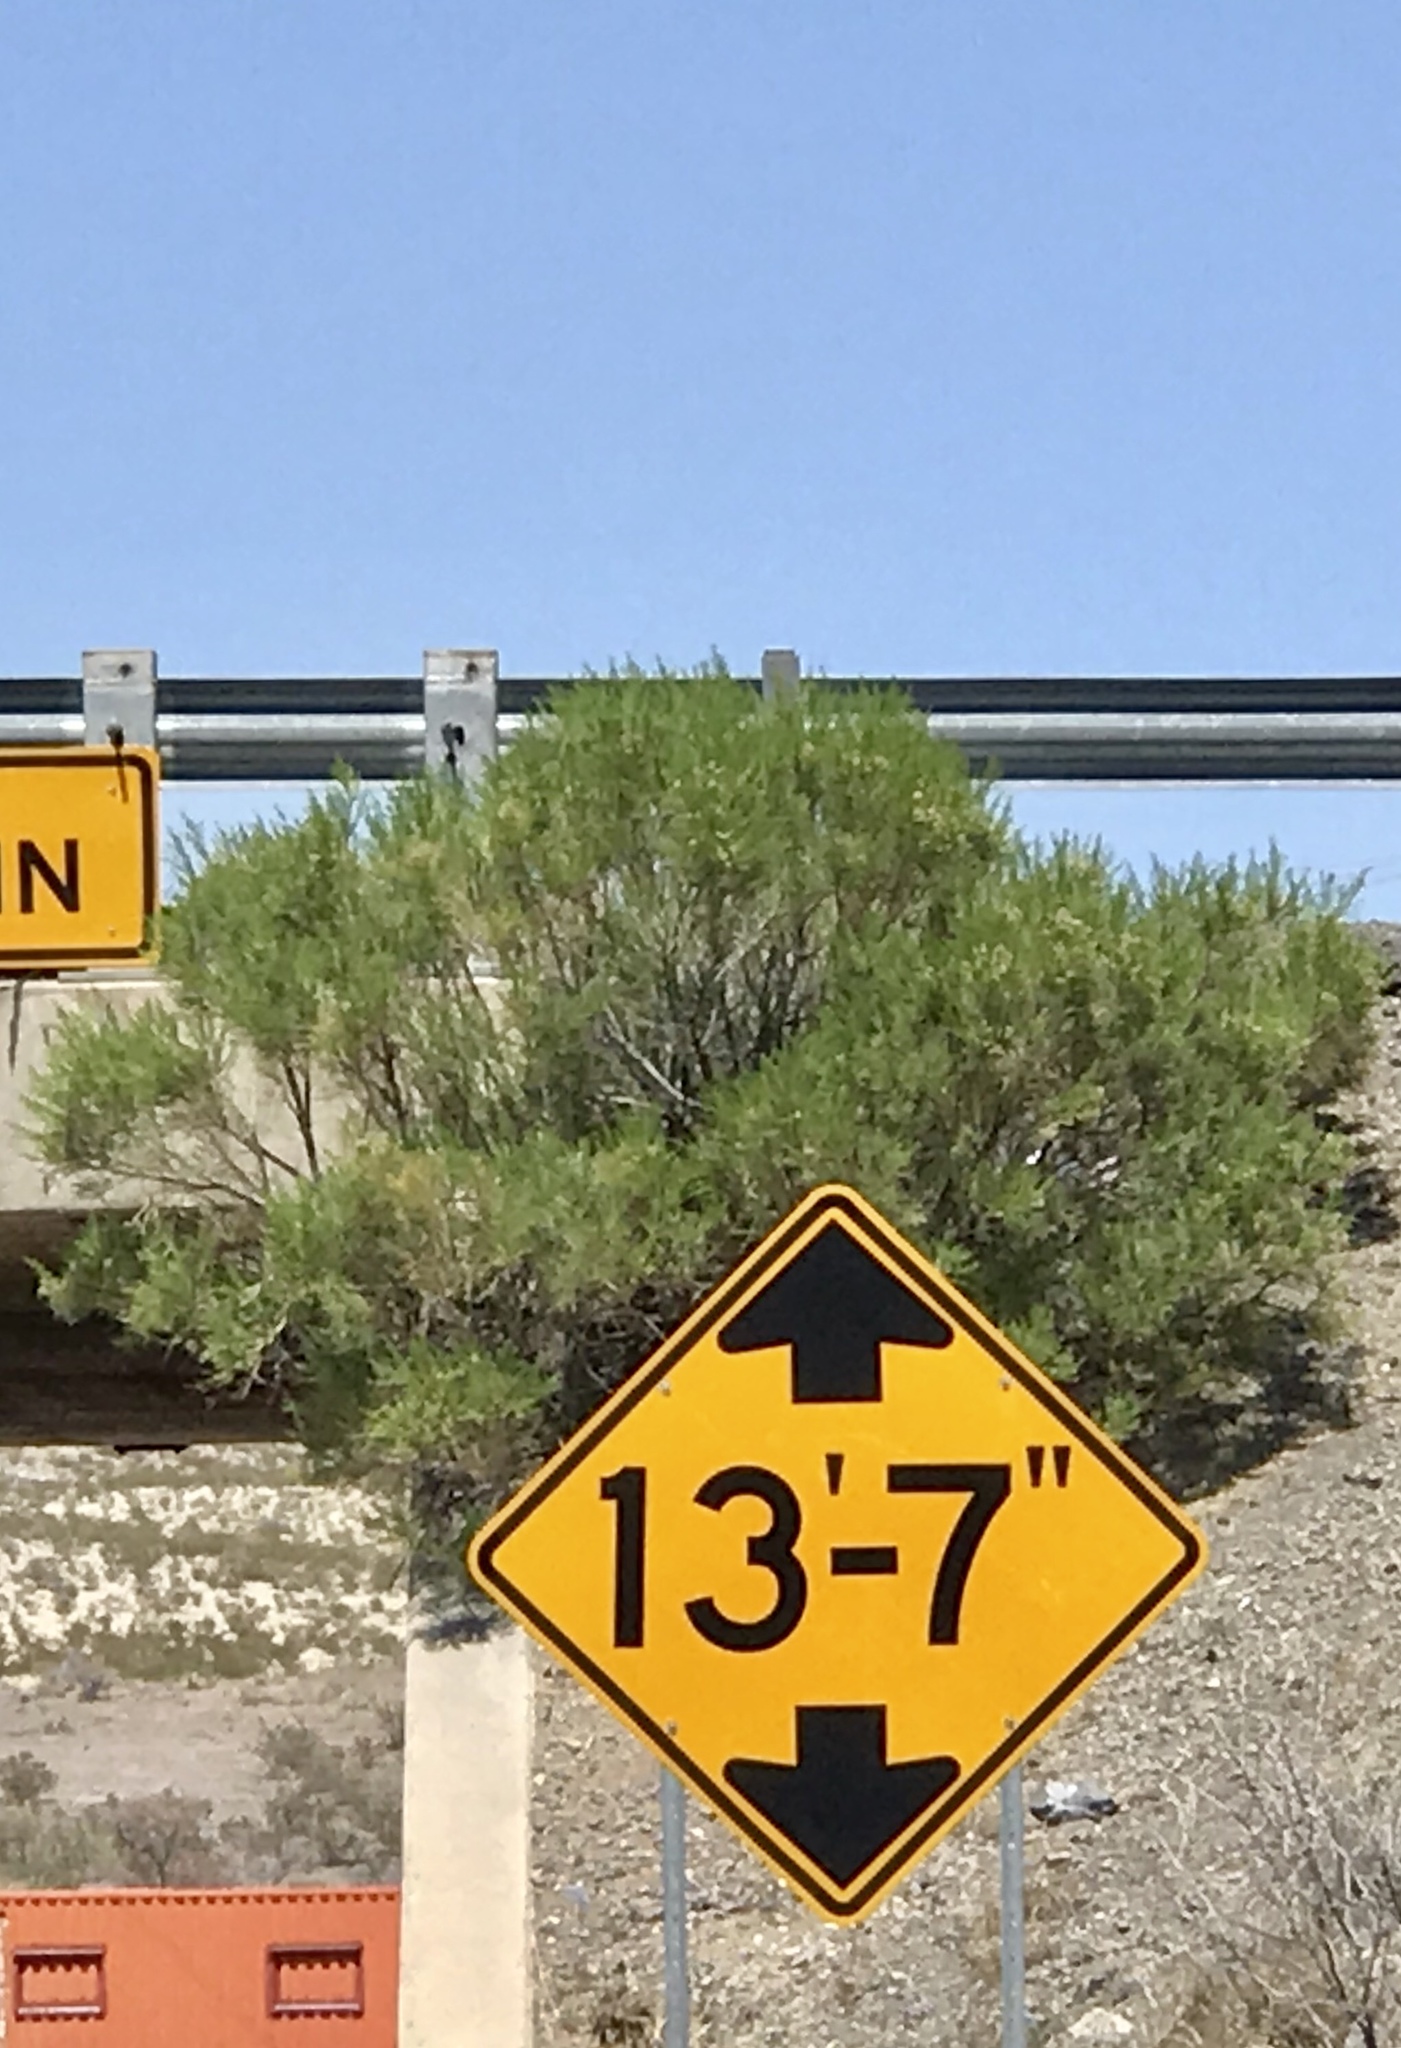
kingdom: Plantae
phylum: Tracheophyta
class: Magnoliopsida
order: Asterales
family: Asteraceae
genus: Baccharis
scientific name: Baccharis sarothroides
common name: Desert-broom
